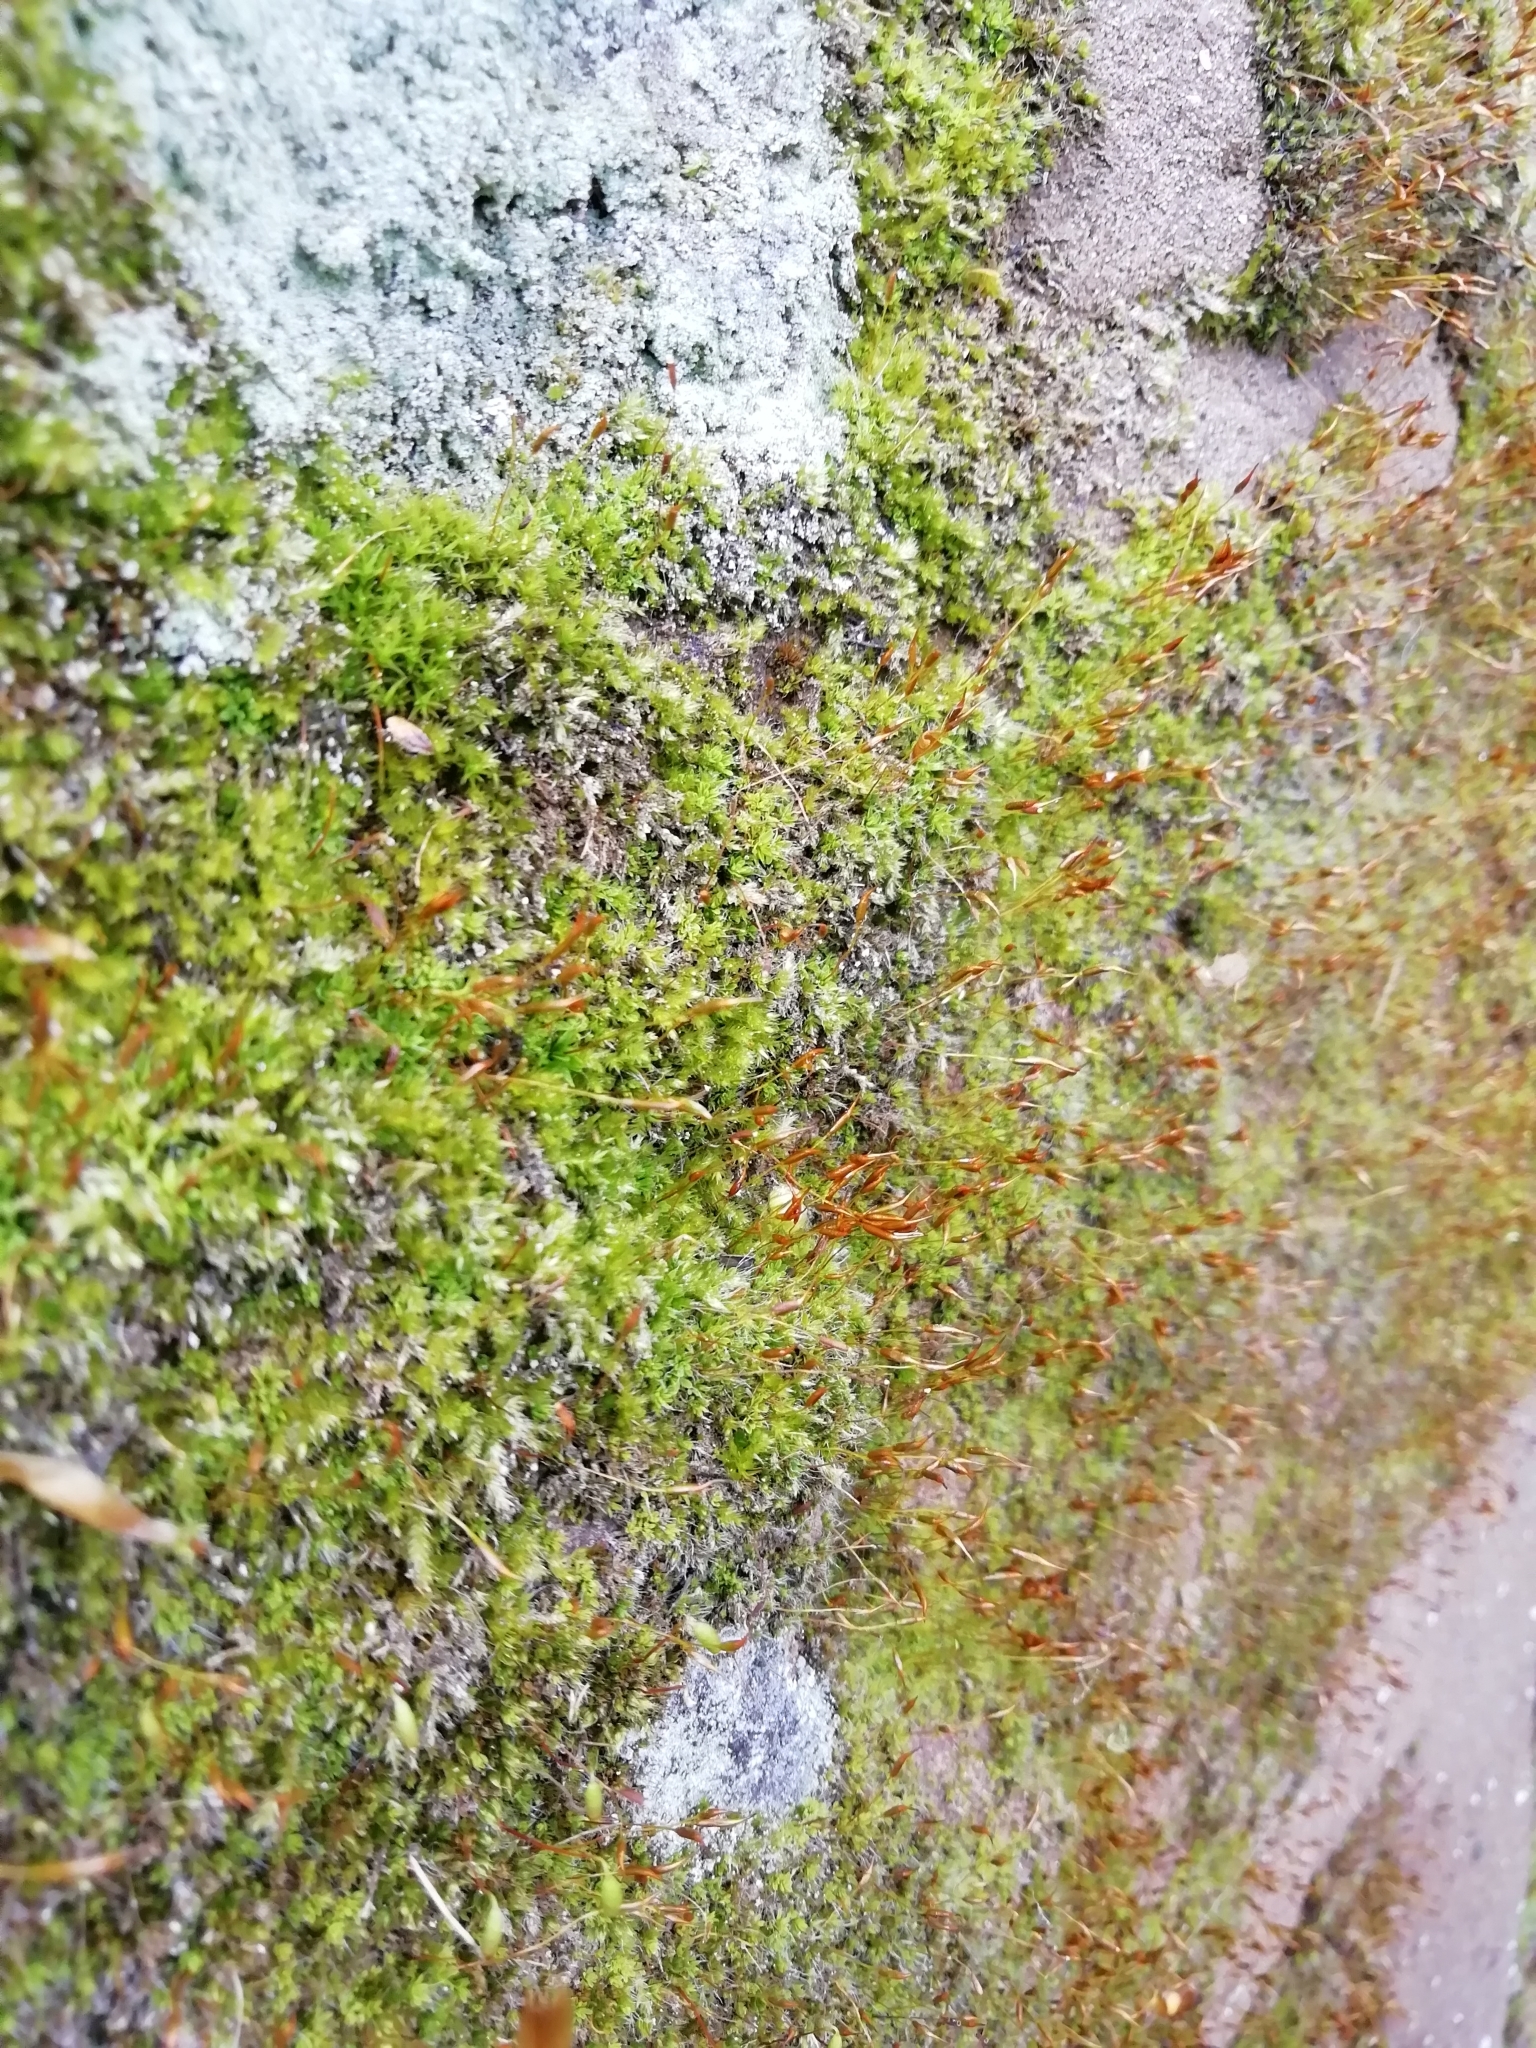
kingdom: Plantae
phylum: Bryophyta
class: Bryopsida
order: Pottiales
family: Pottiaceae
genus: Tortula
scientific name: Tortula muralis
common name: Wall screw-moss
